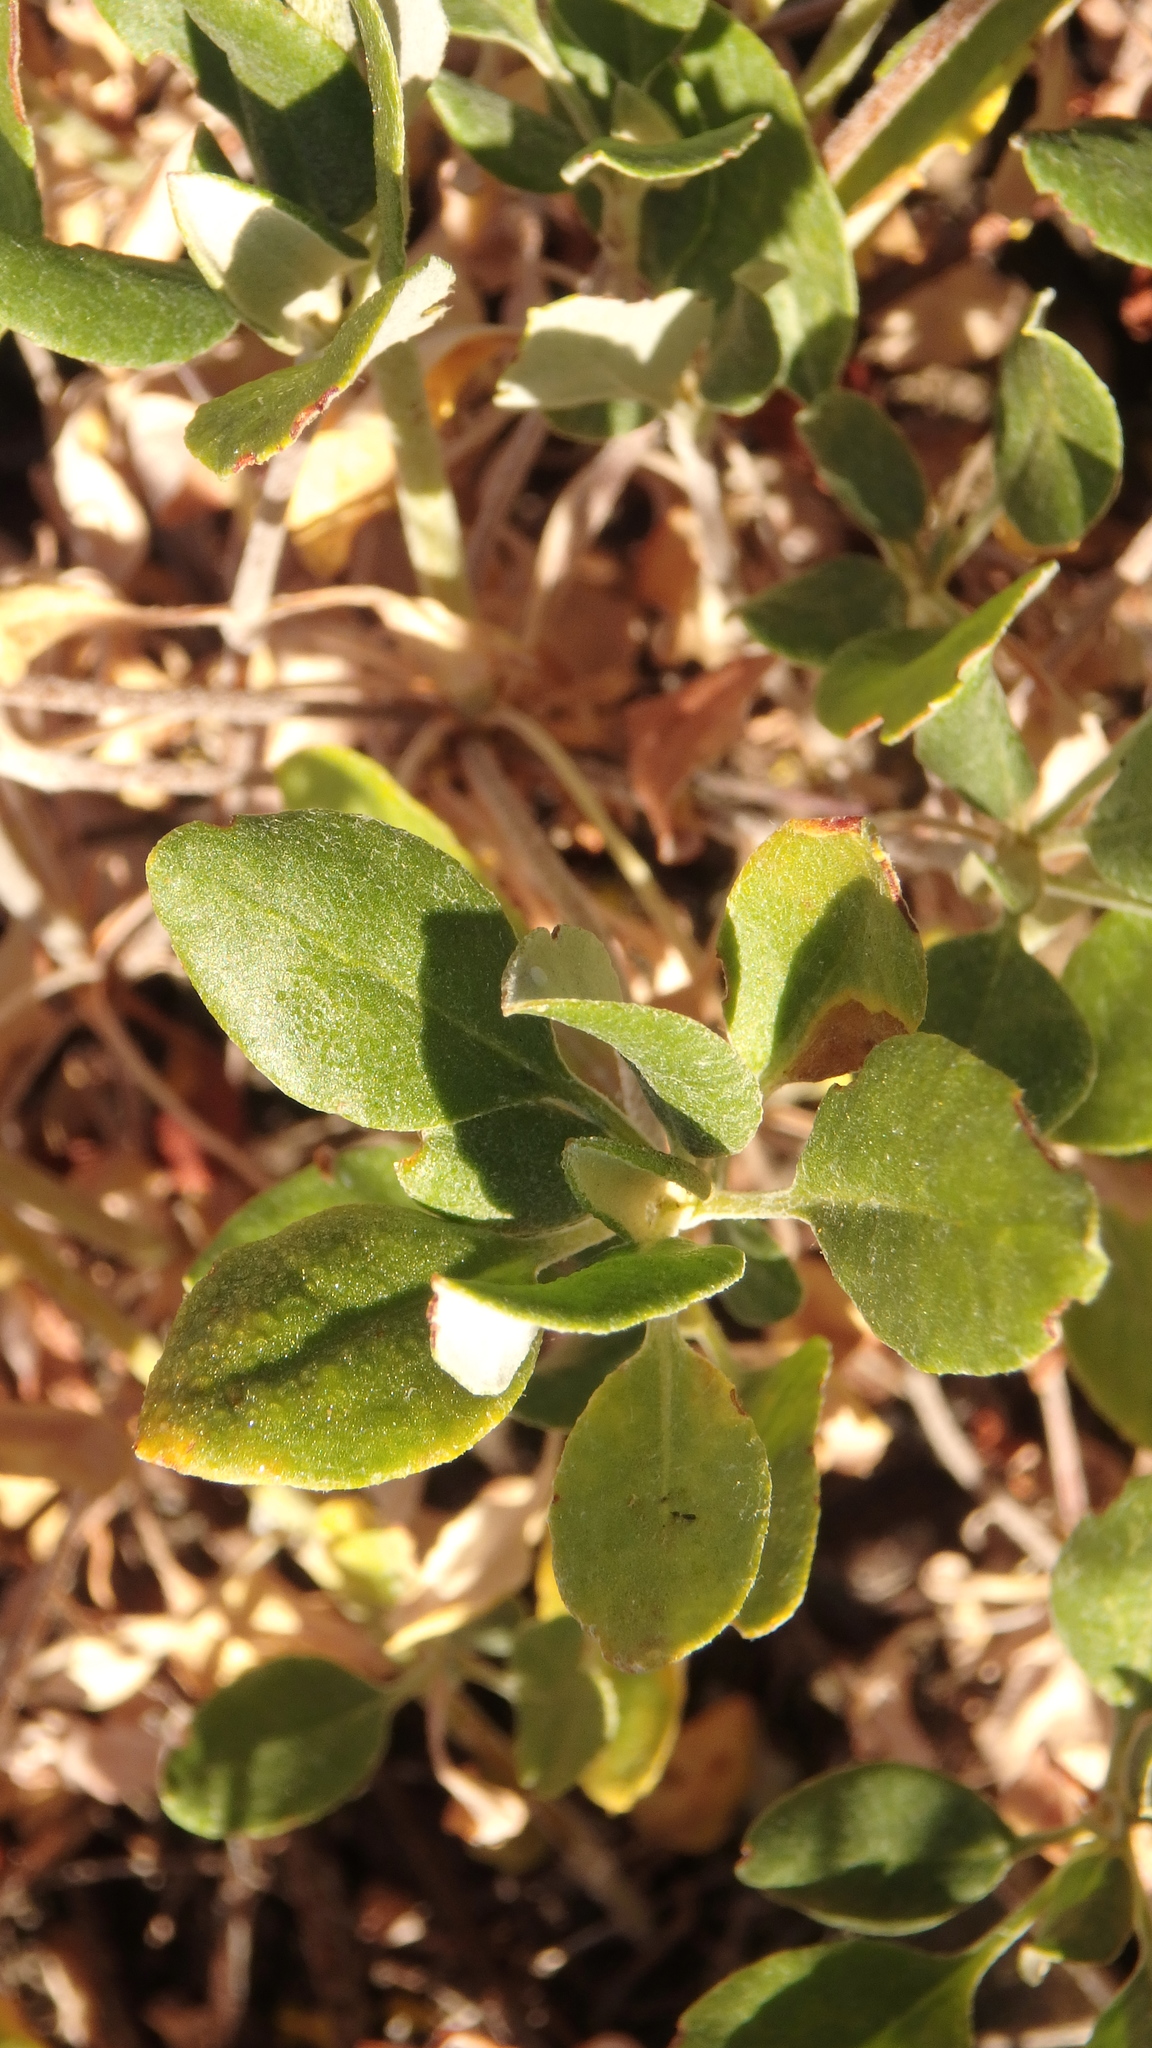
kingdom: Plantae
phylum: Tracheophyta
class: Magnoliopsida
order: Caryophyllales
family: Polygonaceae
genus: Eriogonum
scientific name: Eriogonum umbellatum
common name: Sulfur-buckwheat
